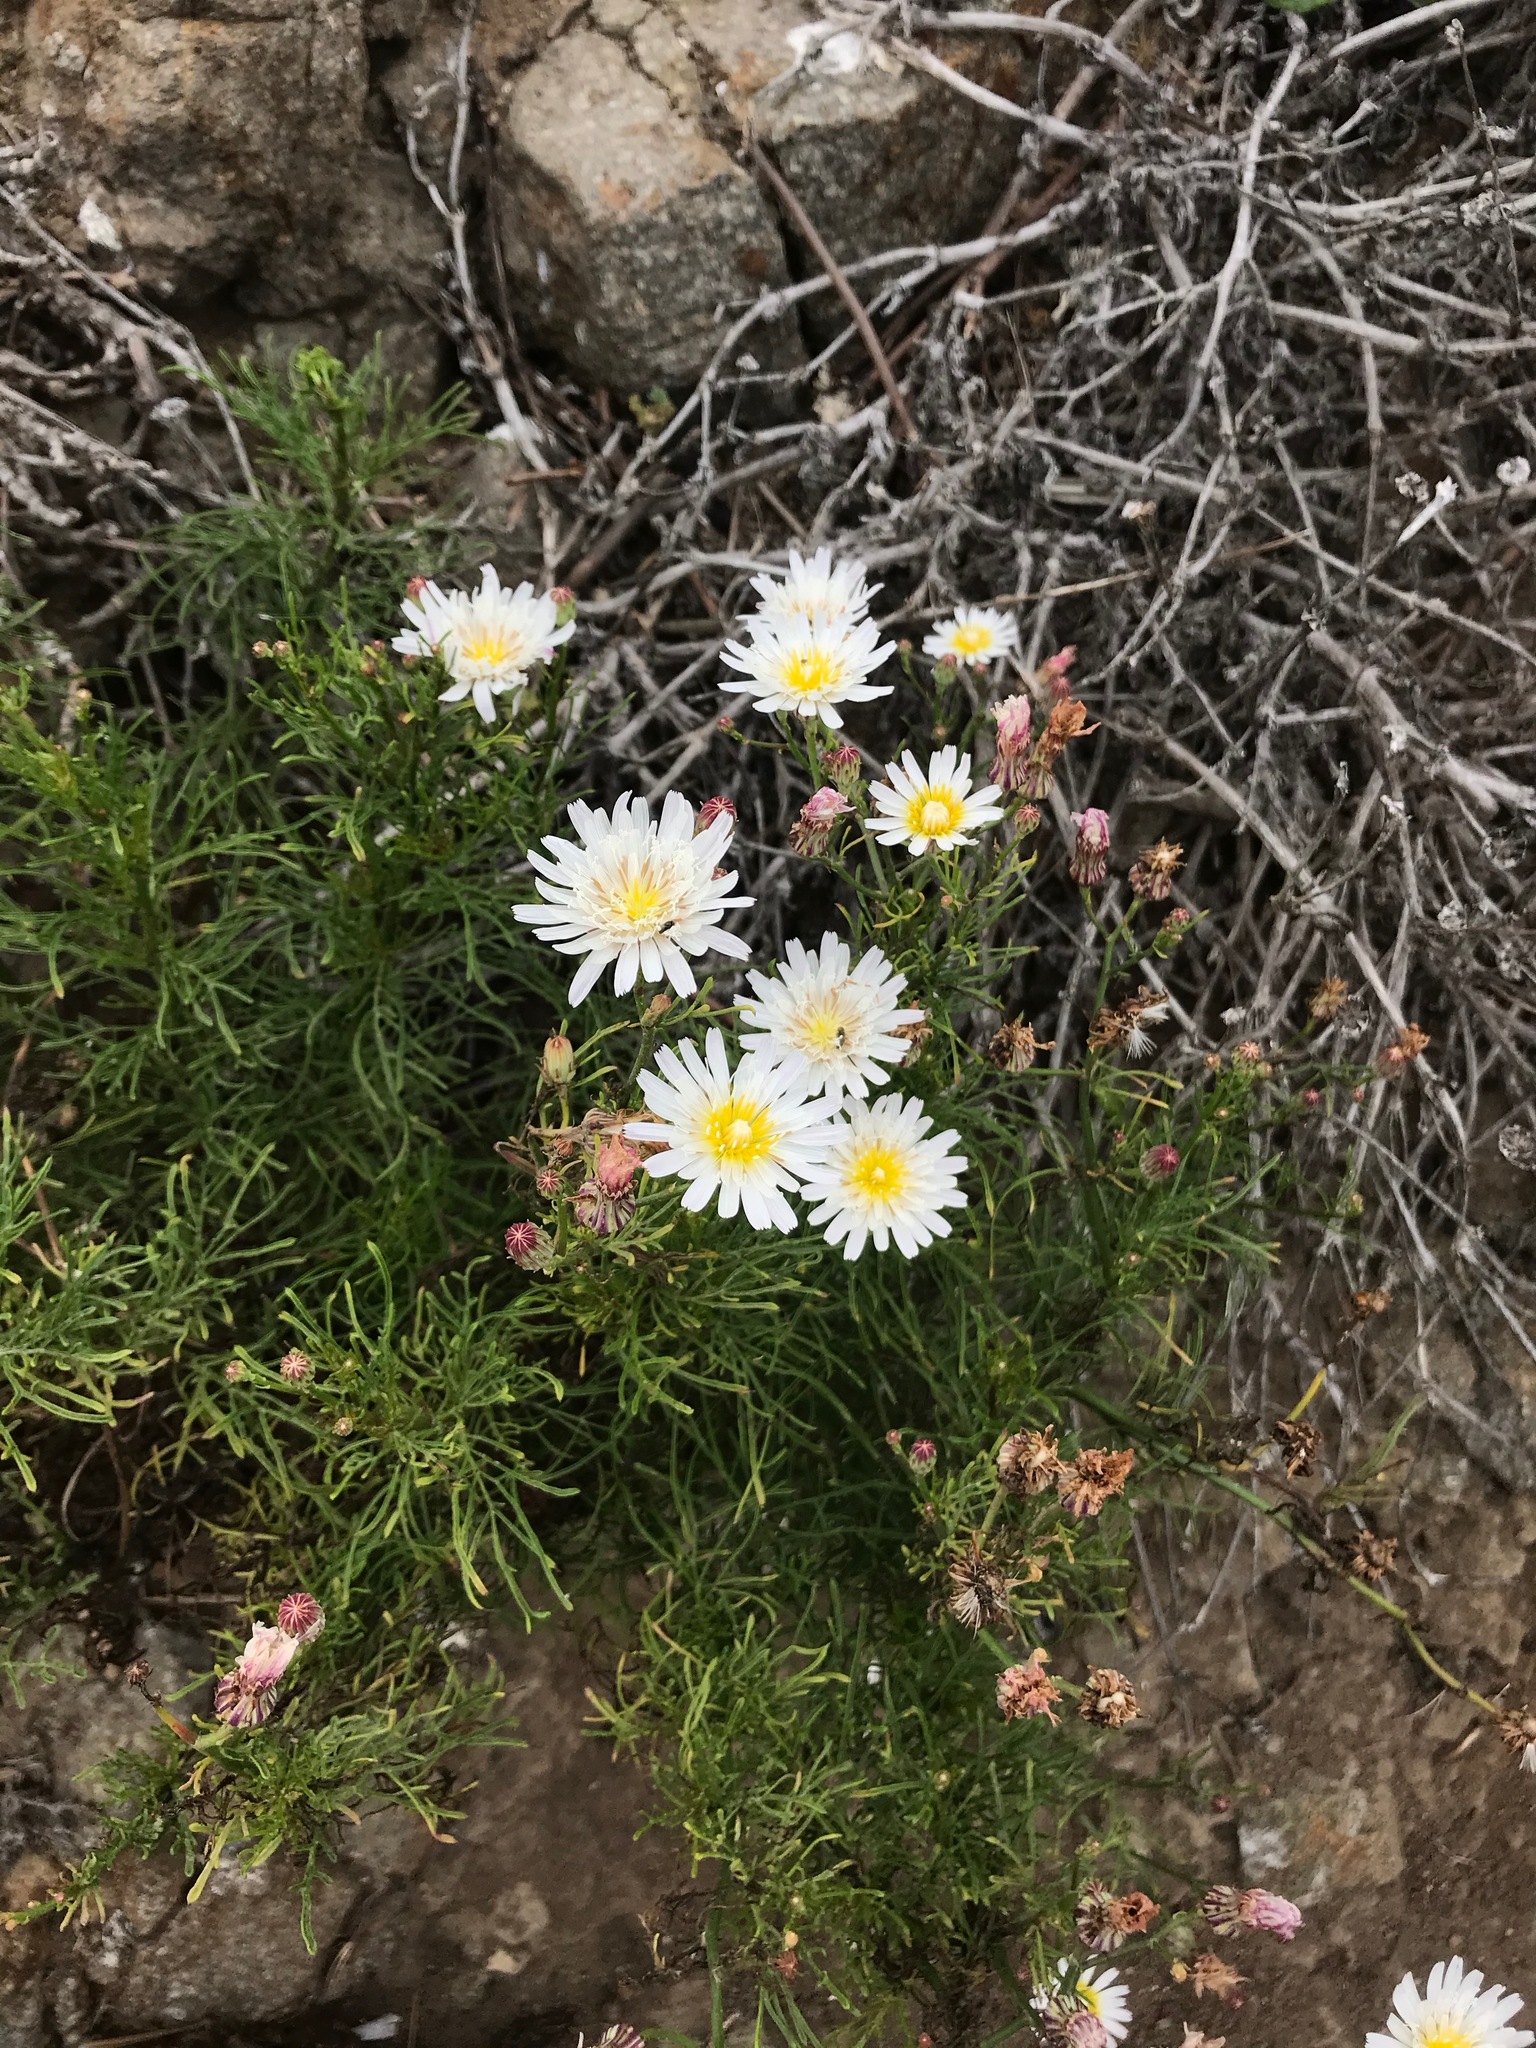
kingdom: Plantae
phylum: Tracheophyta
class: Magnoliopsida
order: Asterales
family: Asteraceae
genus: Malacothrix
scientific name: Malacothrix saxatilis
